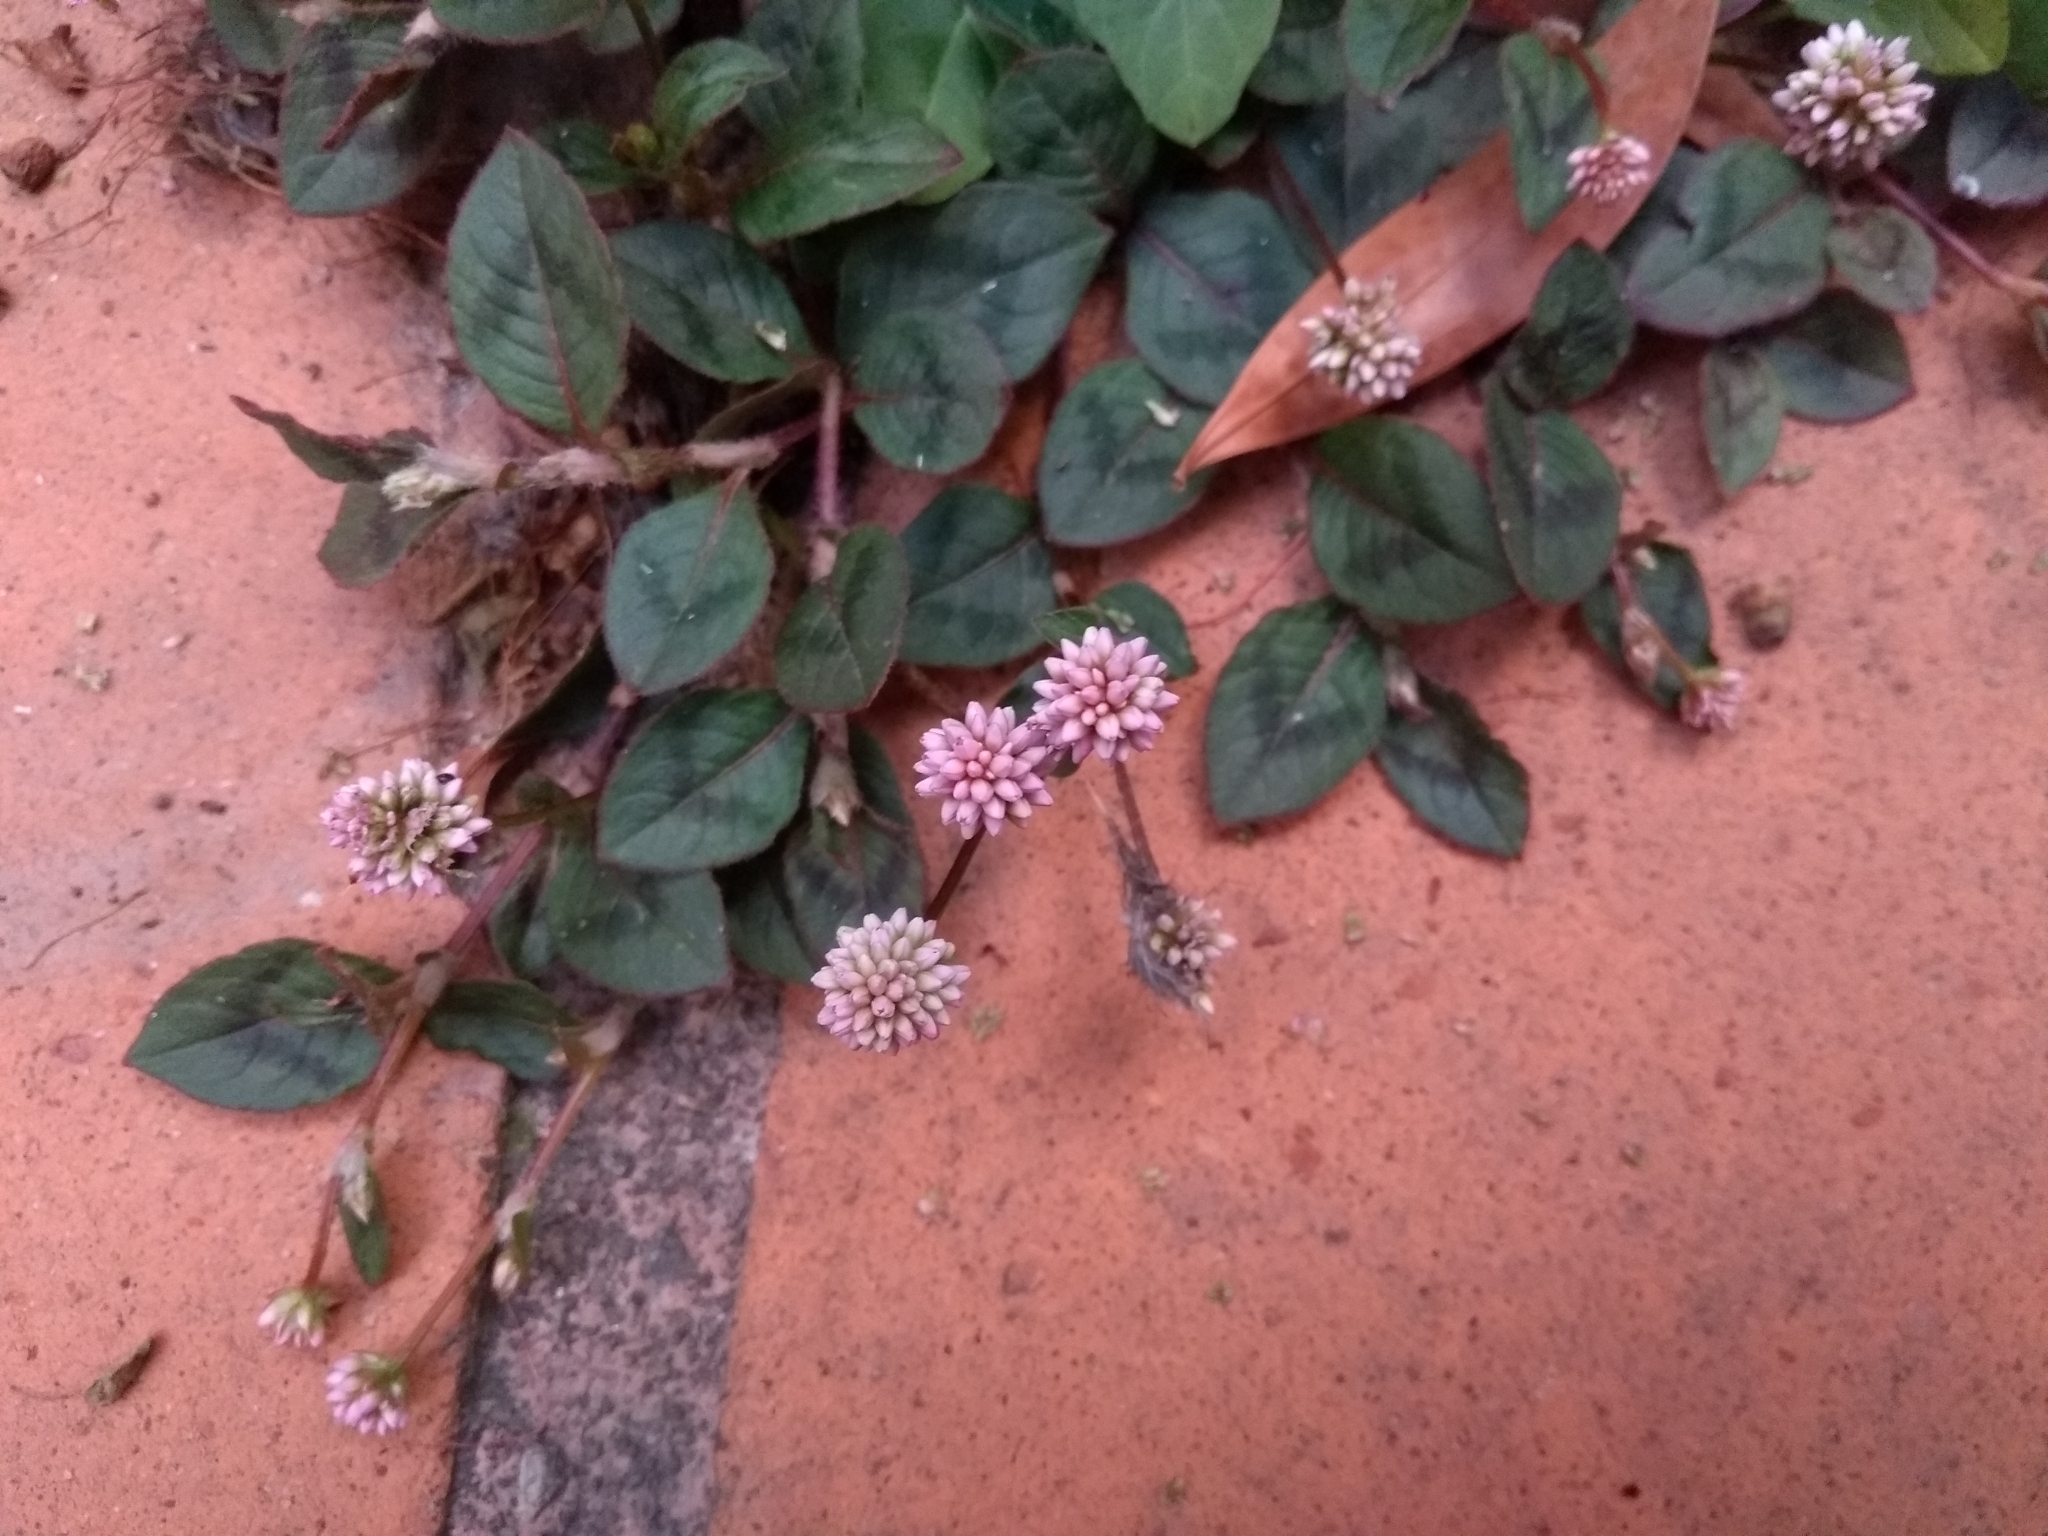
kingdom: Plantae
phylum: Tracheophyta
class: Magnoliopsida
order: Caryophyllales
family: Polygonaceae
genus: Persicaria
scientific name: Persicaria capitata
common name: Pinkhead smartweed
